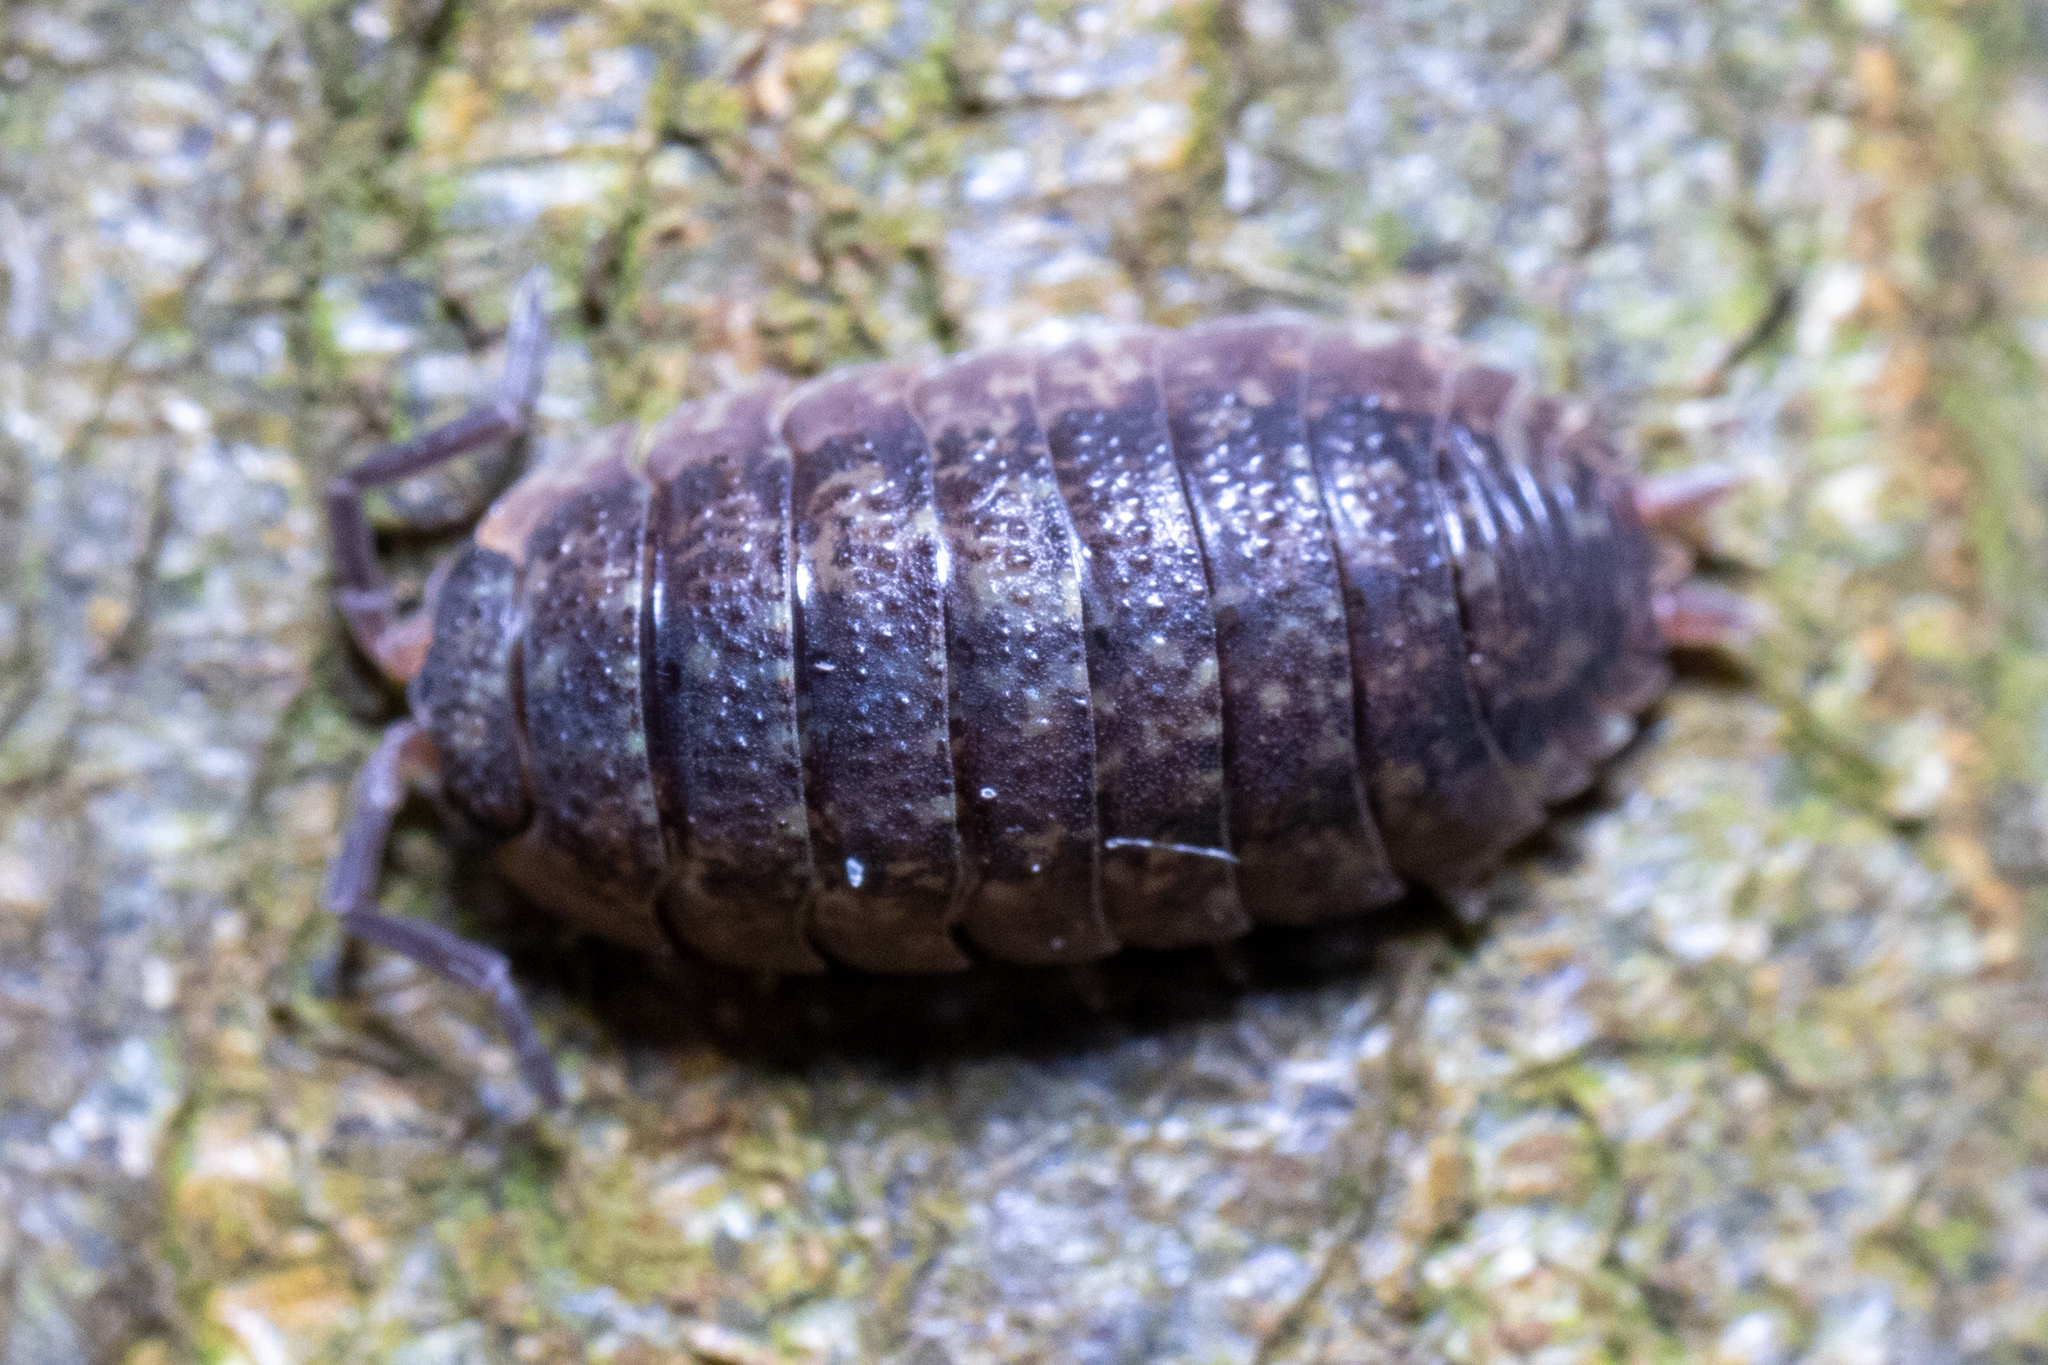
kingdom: Animalia
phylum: Arthropoda
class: Malacostraca
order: Isopoda
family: Porcellionidae
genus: Porcellio
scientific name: Porcellio scaber
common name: Common rough woodlouse
